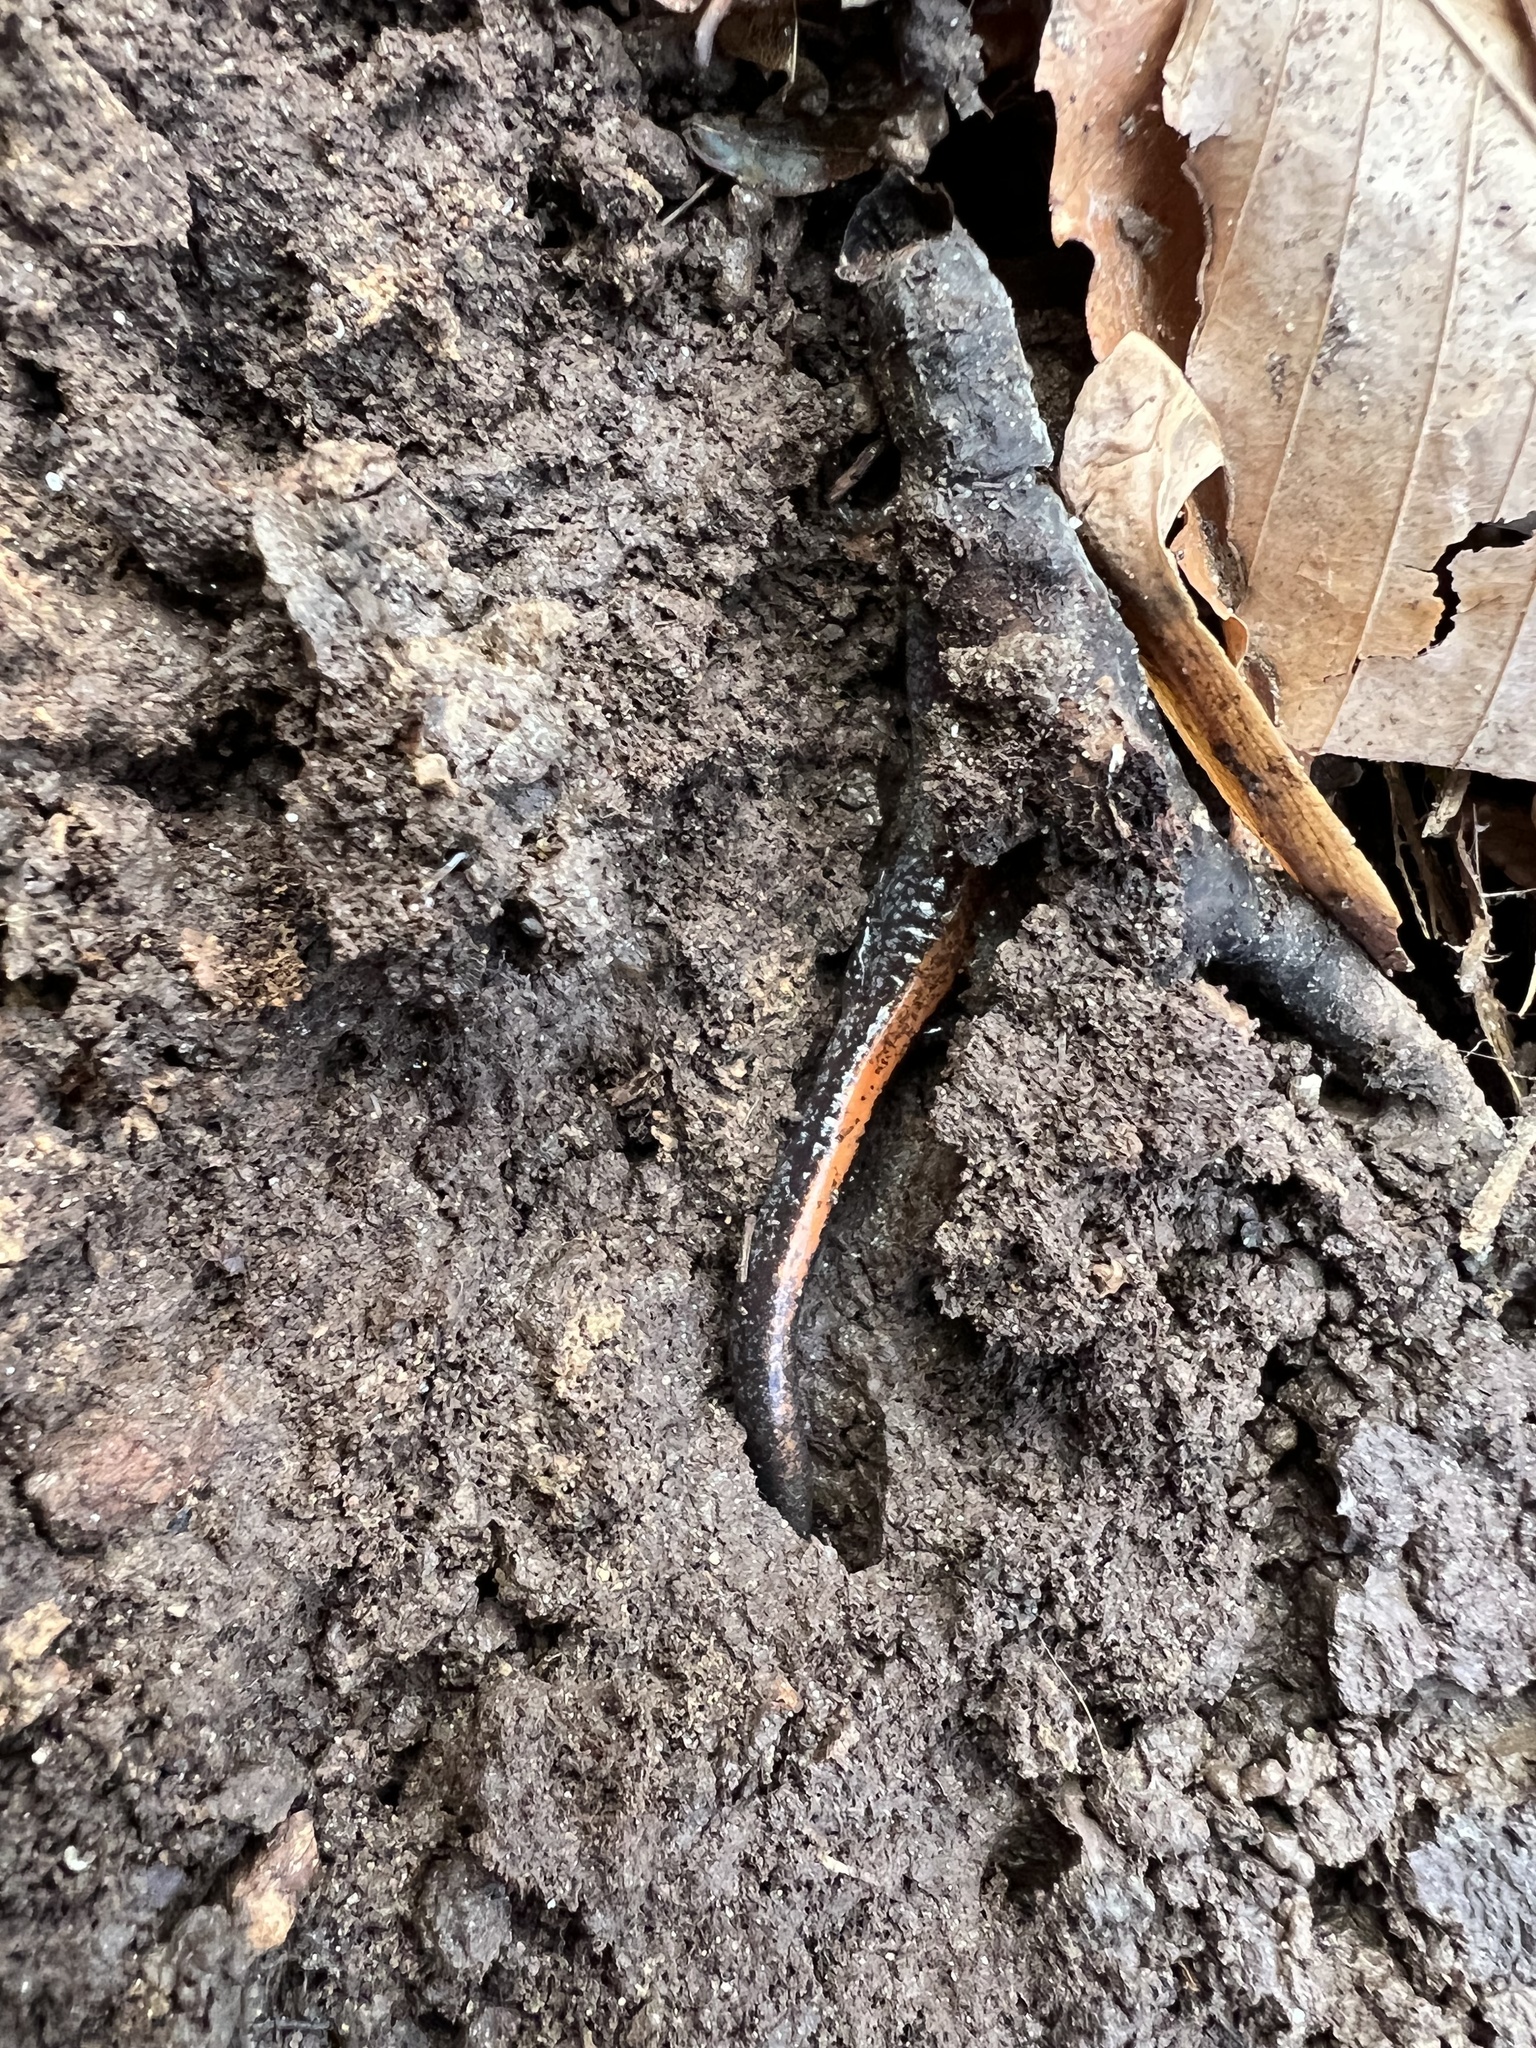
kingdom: Animalia
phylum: Chordata
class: Amphibia
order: Caudata
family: Plethodontidae
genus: Plethodon
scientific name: Plethodon cinereus
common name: Redback salamander
